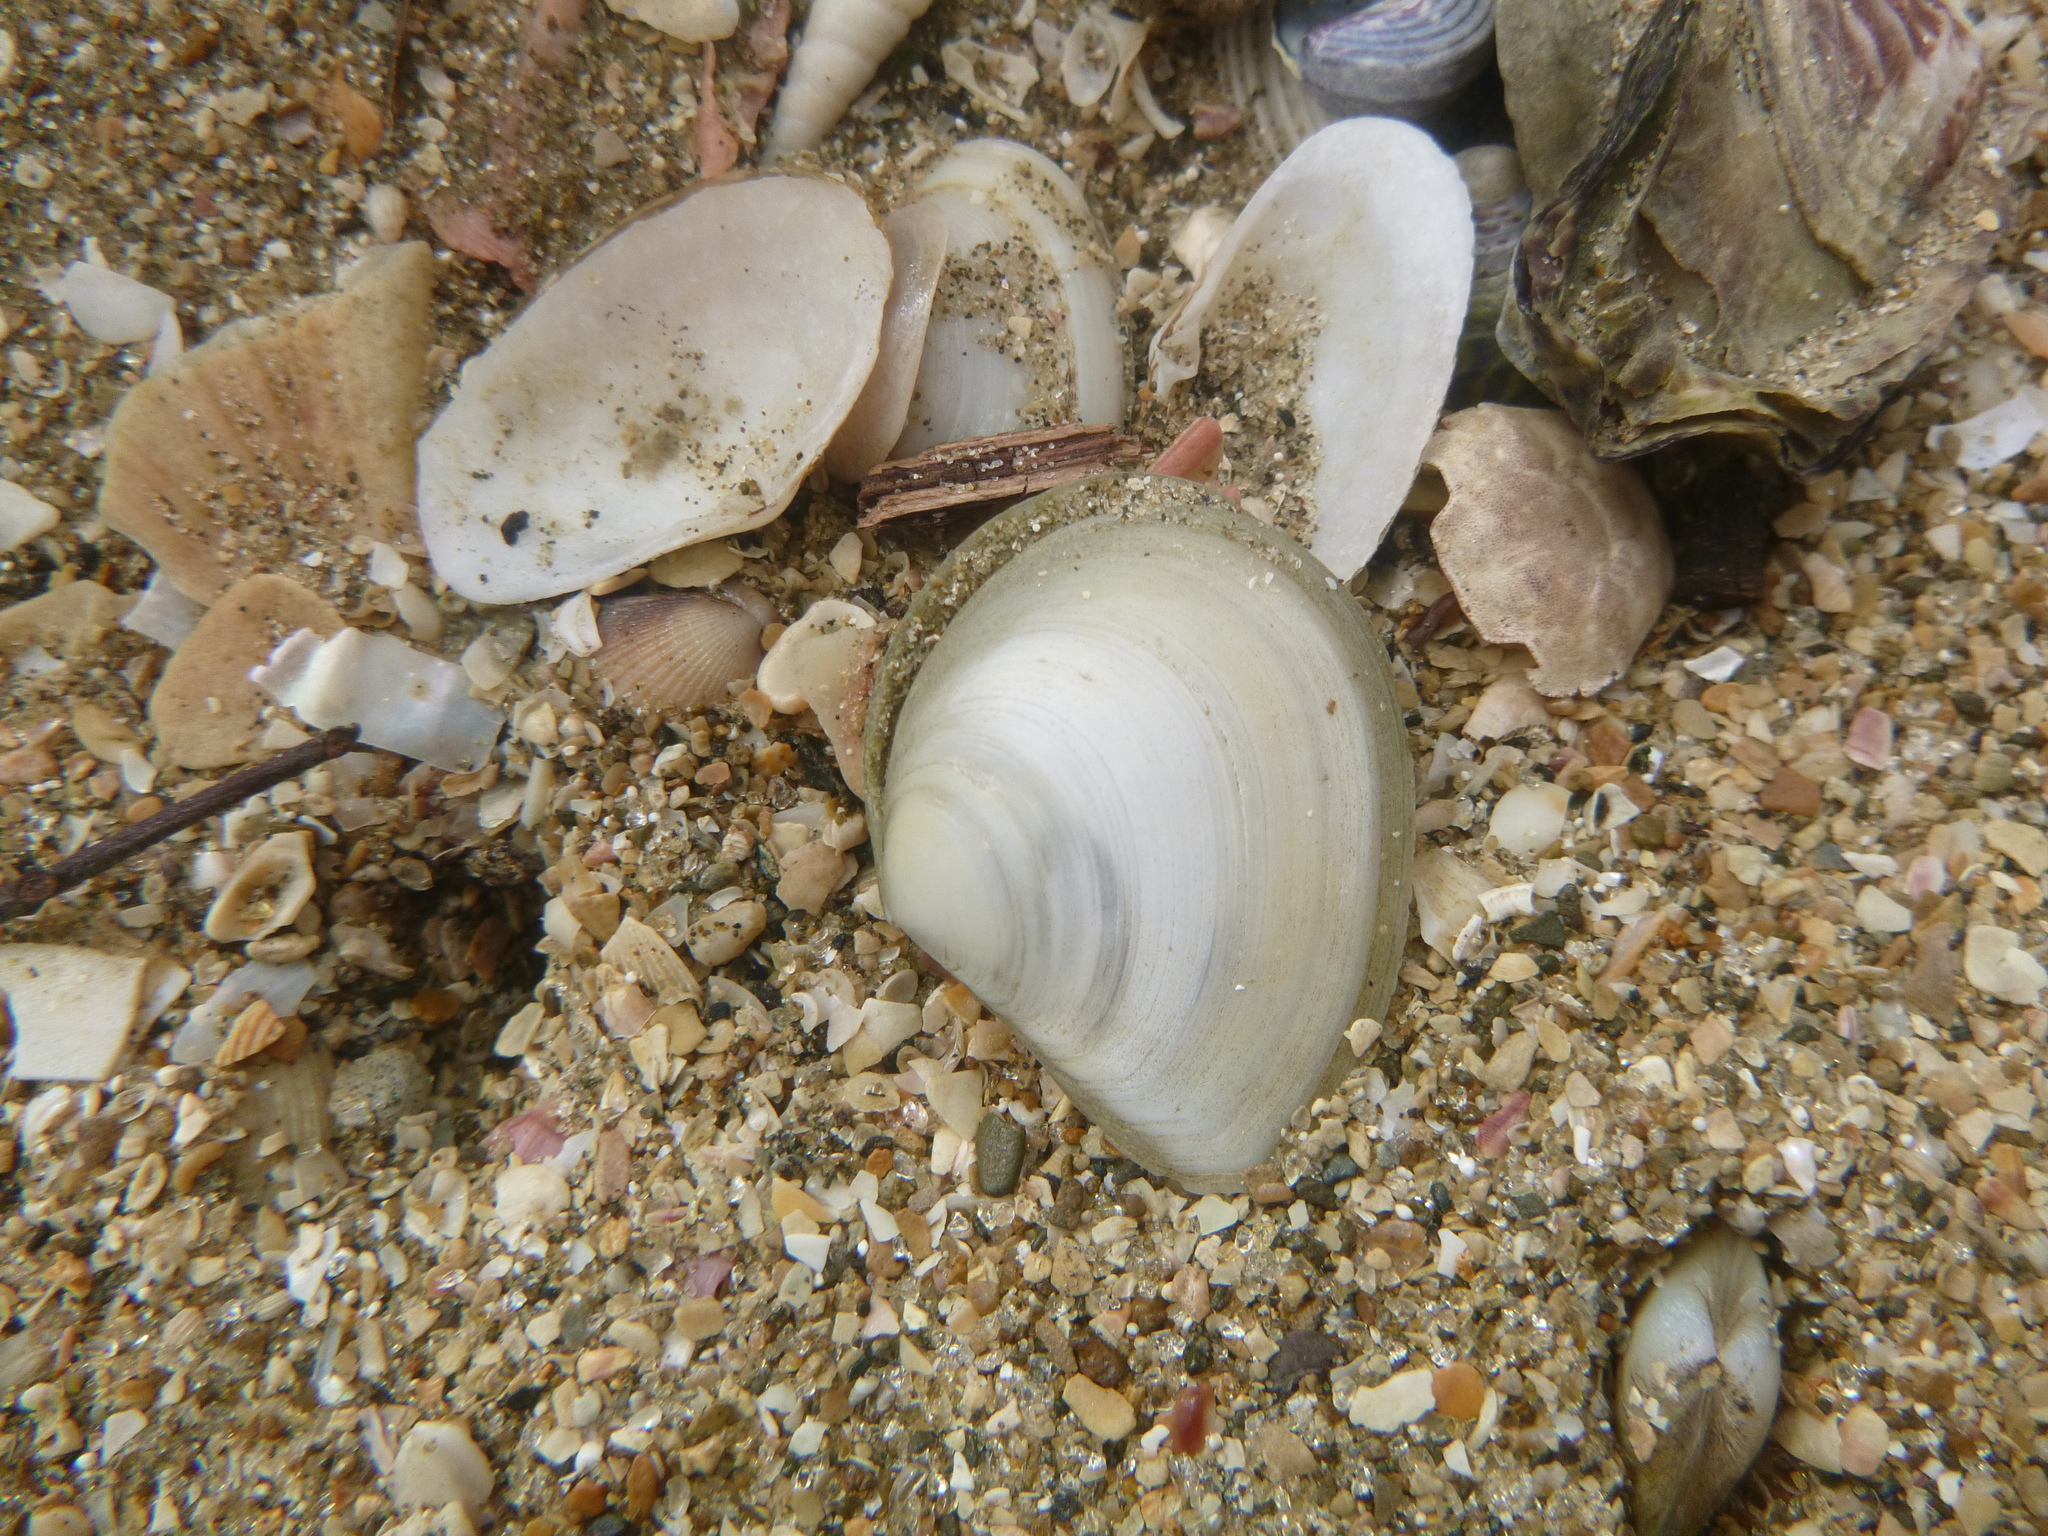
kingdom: Animalia
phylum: Mollusca
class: Bivalvia
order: Cardiida
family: Tellinidae
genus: Macomona
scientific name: Macomona liliana
